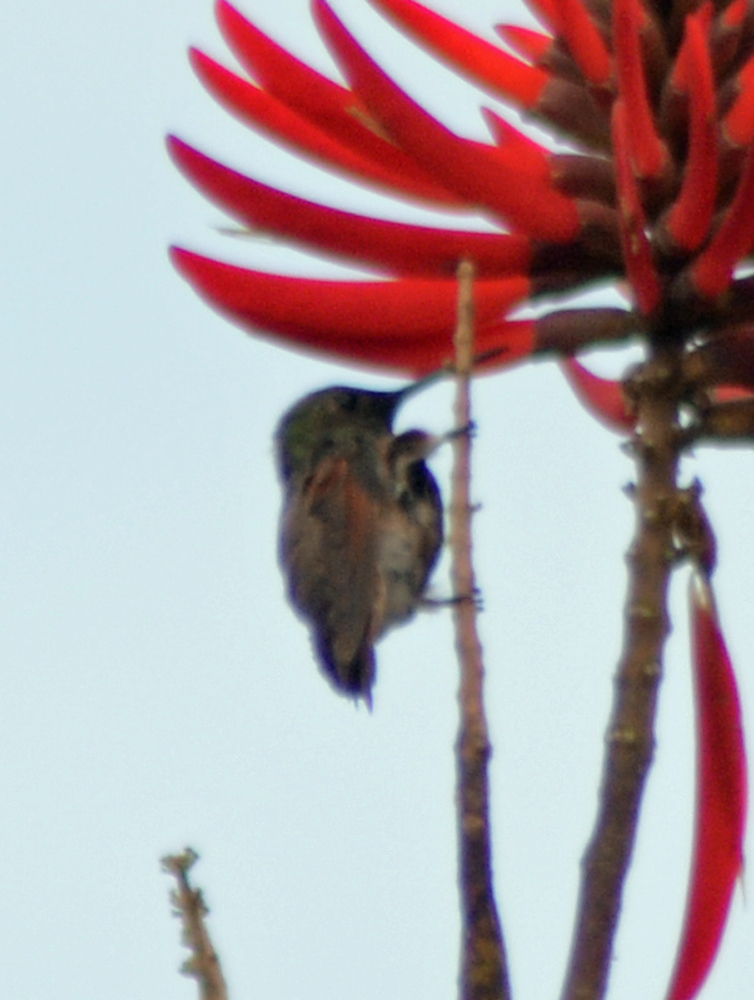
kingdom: Animalia
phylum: Chordata
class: Aves
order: Apodiformes
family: Trochilidae
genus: Saucerottia
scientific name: Saucerottia beryllina
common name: Berylline hummingbird
